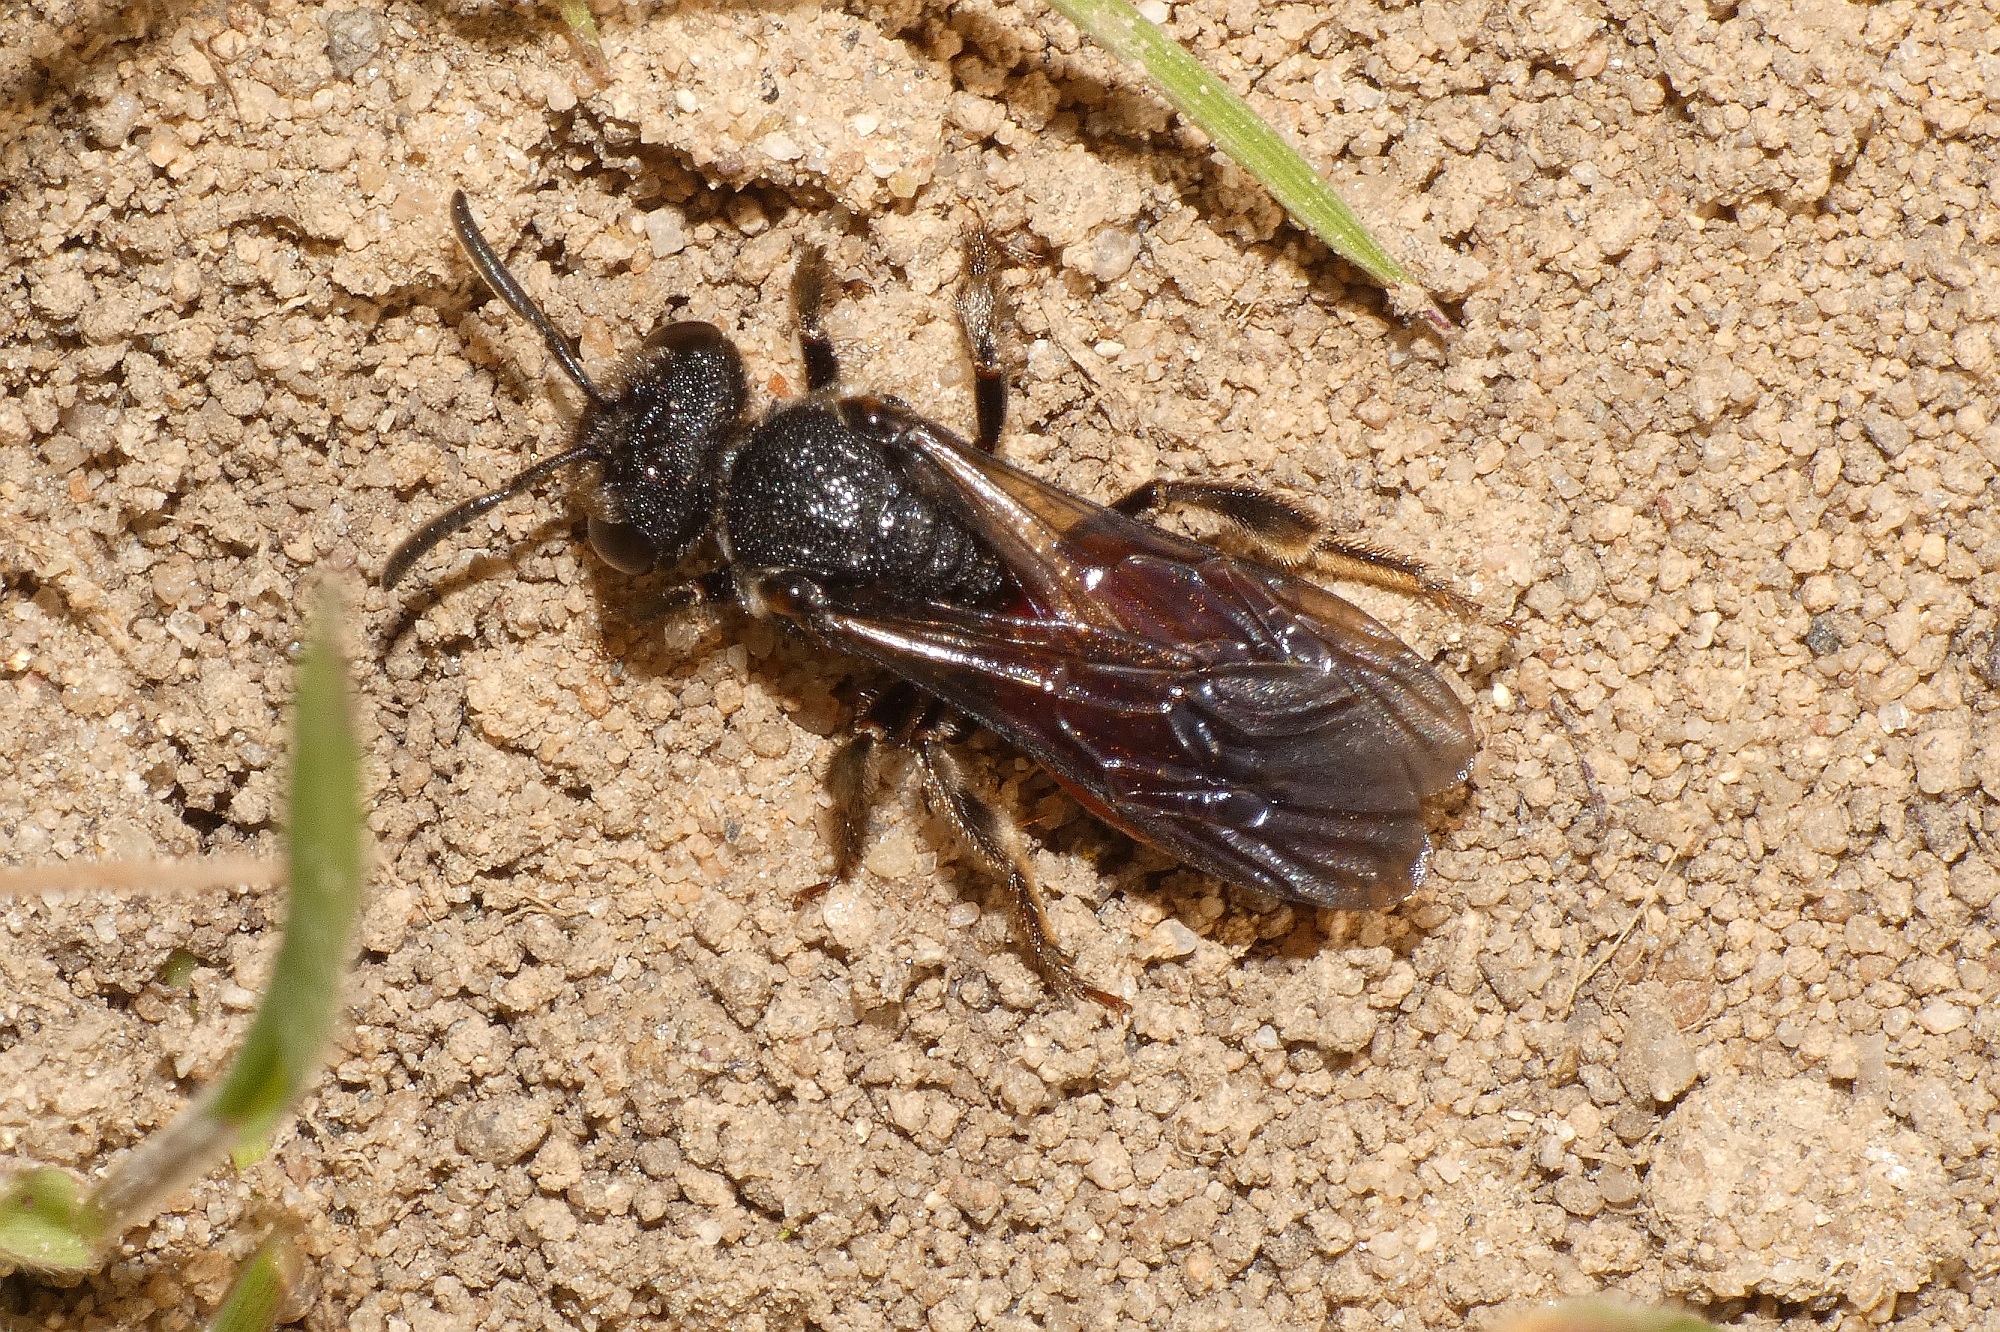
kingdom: Animalia
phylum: Arthropoda
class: Insecta
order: Hymenoptera
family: Halictidae
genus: Sphecodes
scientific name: Sphecodes albilabris
